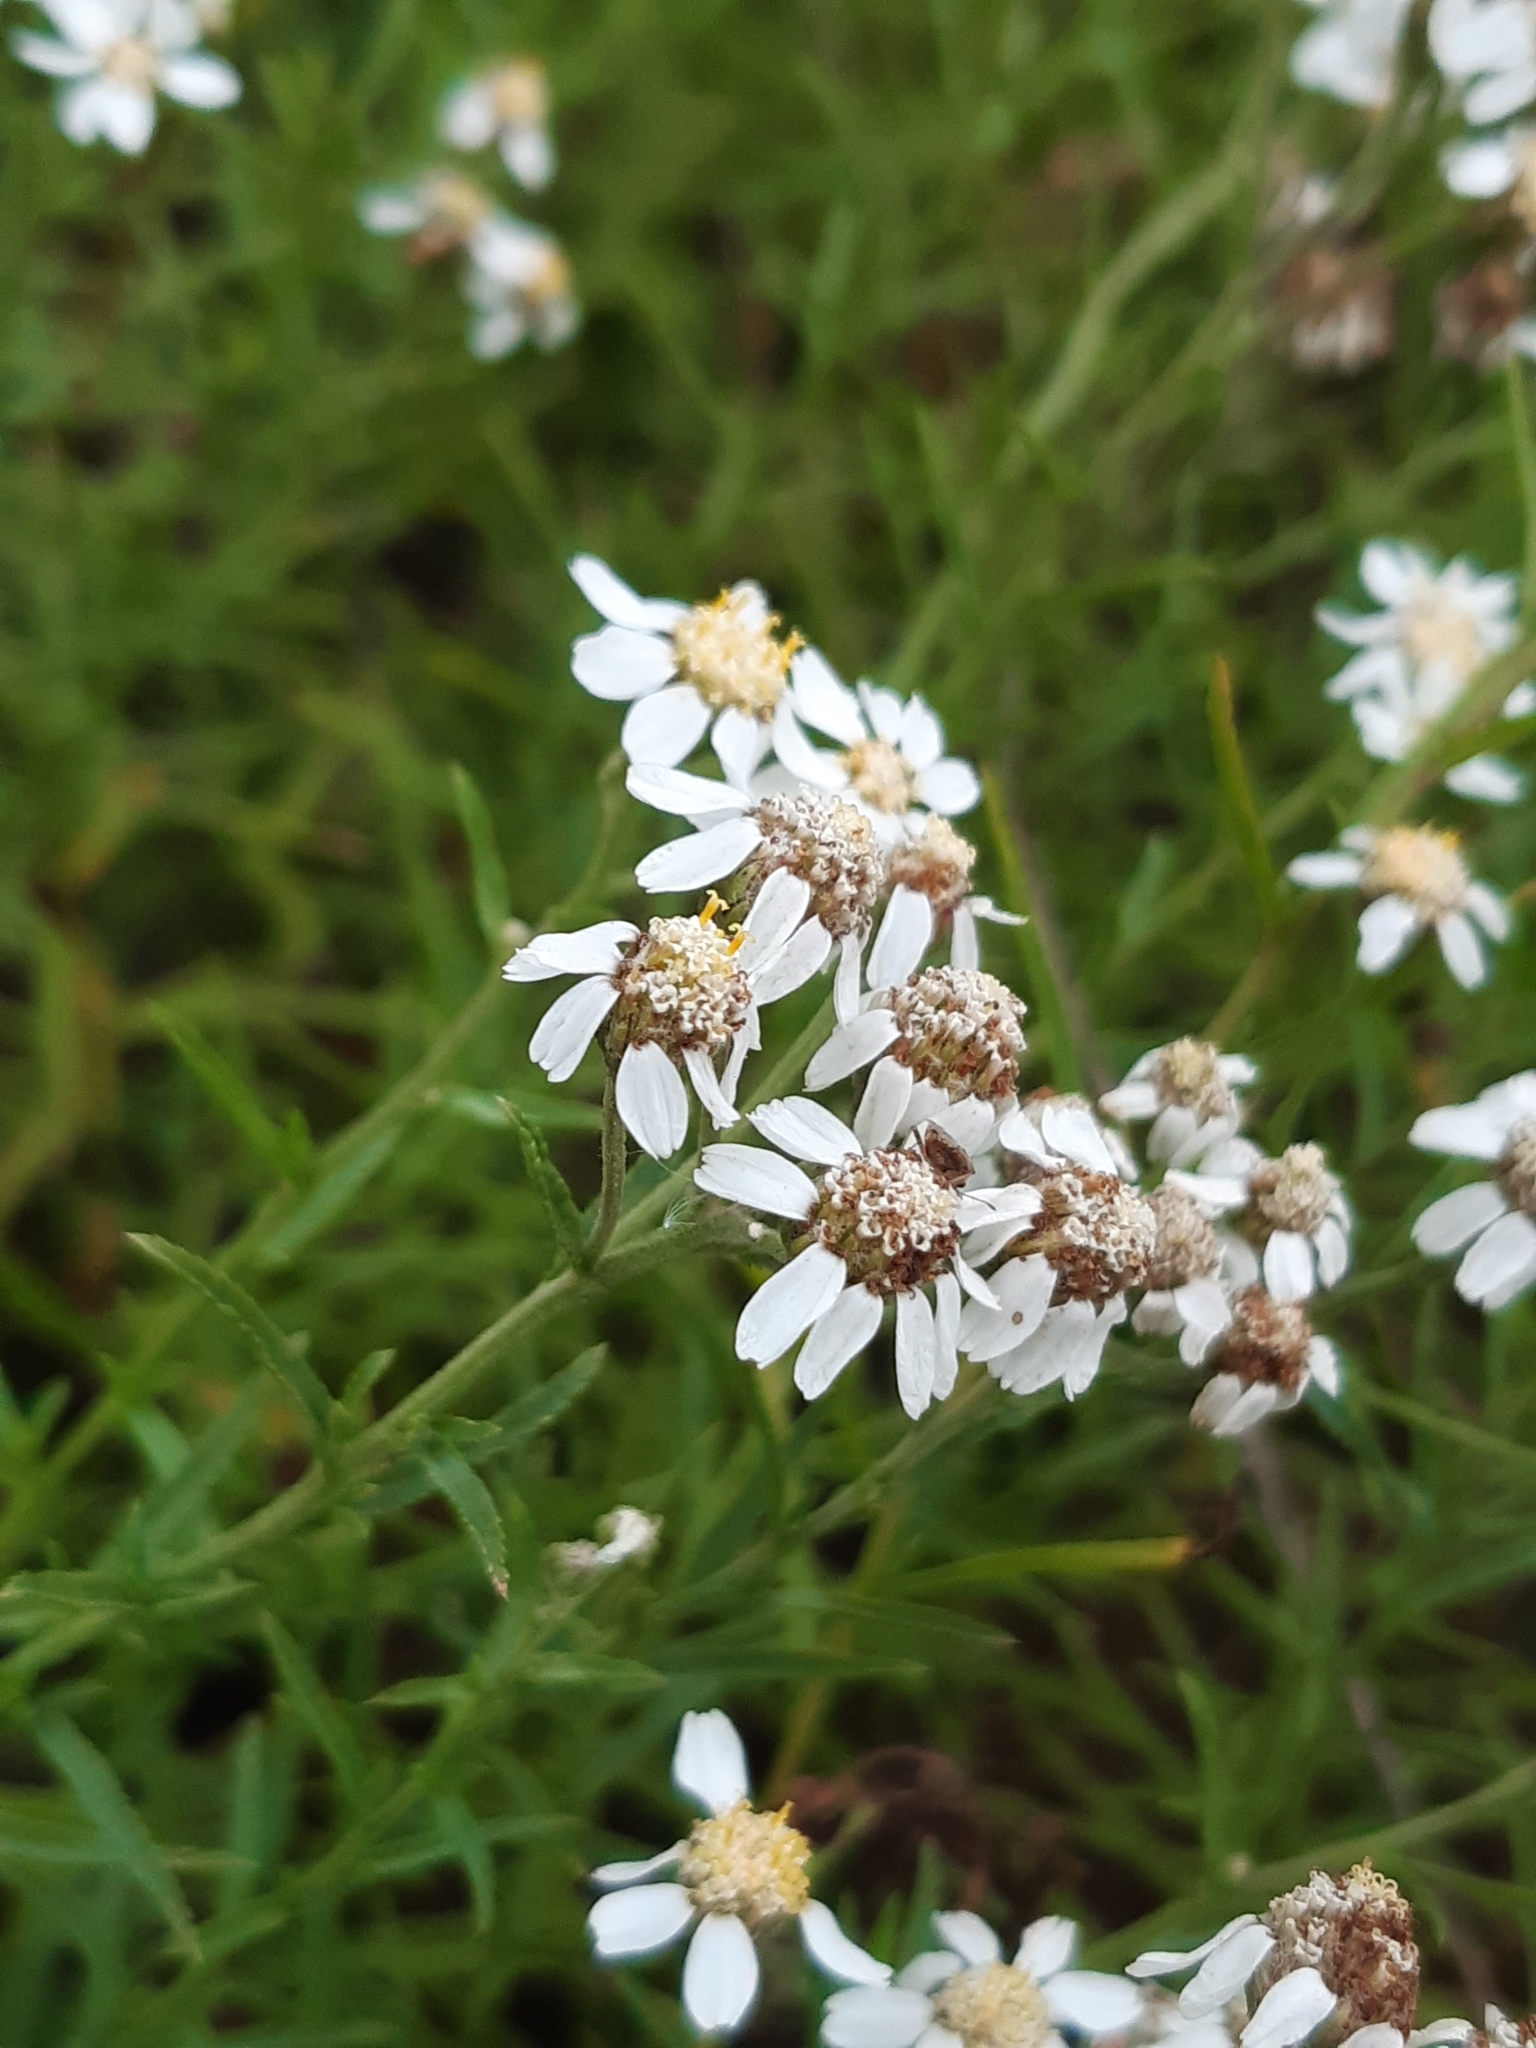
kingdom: Plantae
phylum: Tracheophyta
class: Magnoliopsida
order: Asterales
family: Asteraceae
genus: Achillea
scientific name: Achillea ptarmica
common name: Sneezeweed
